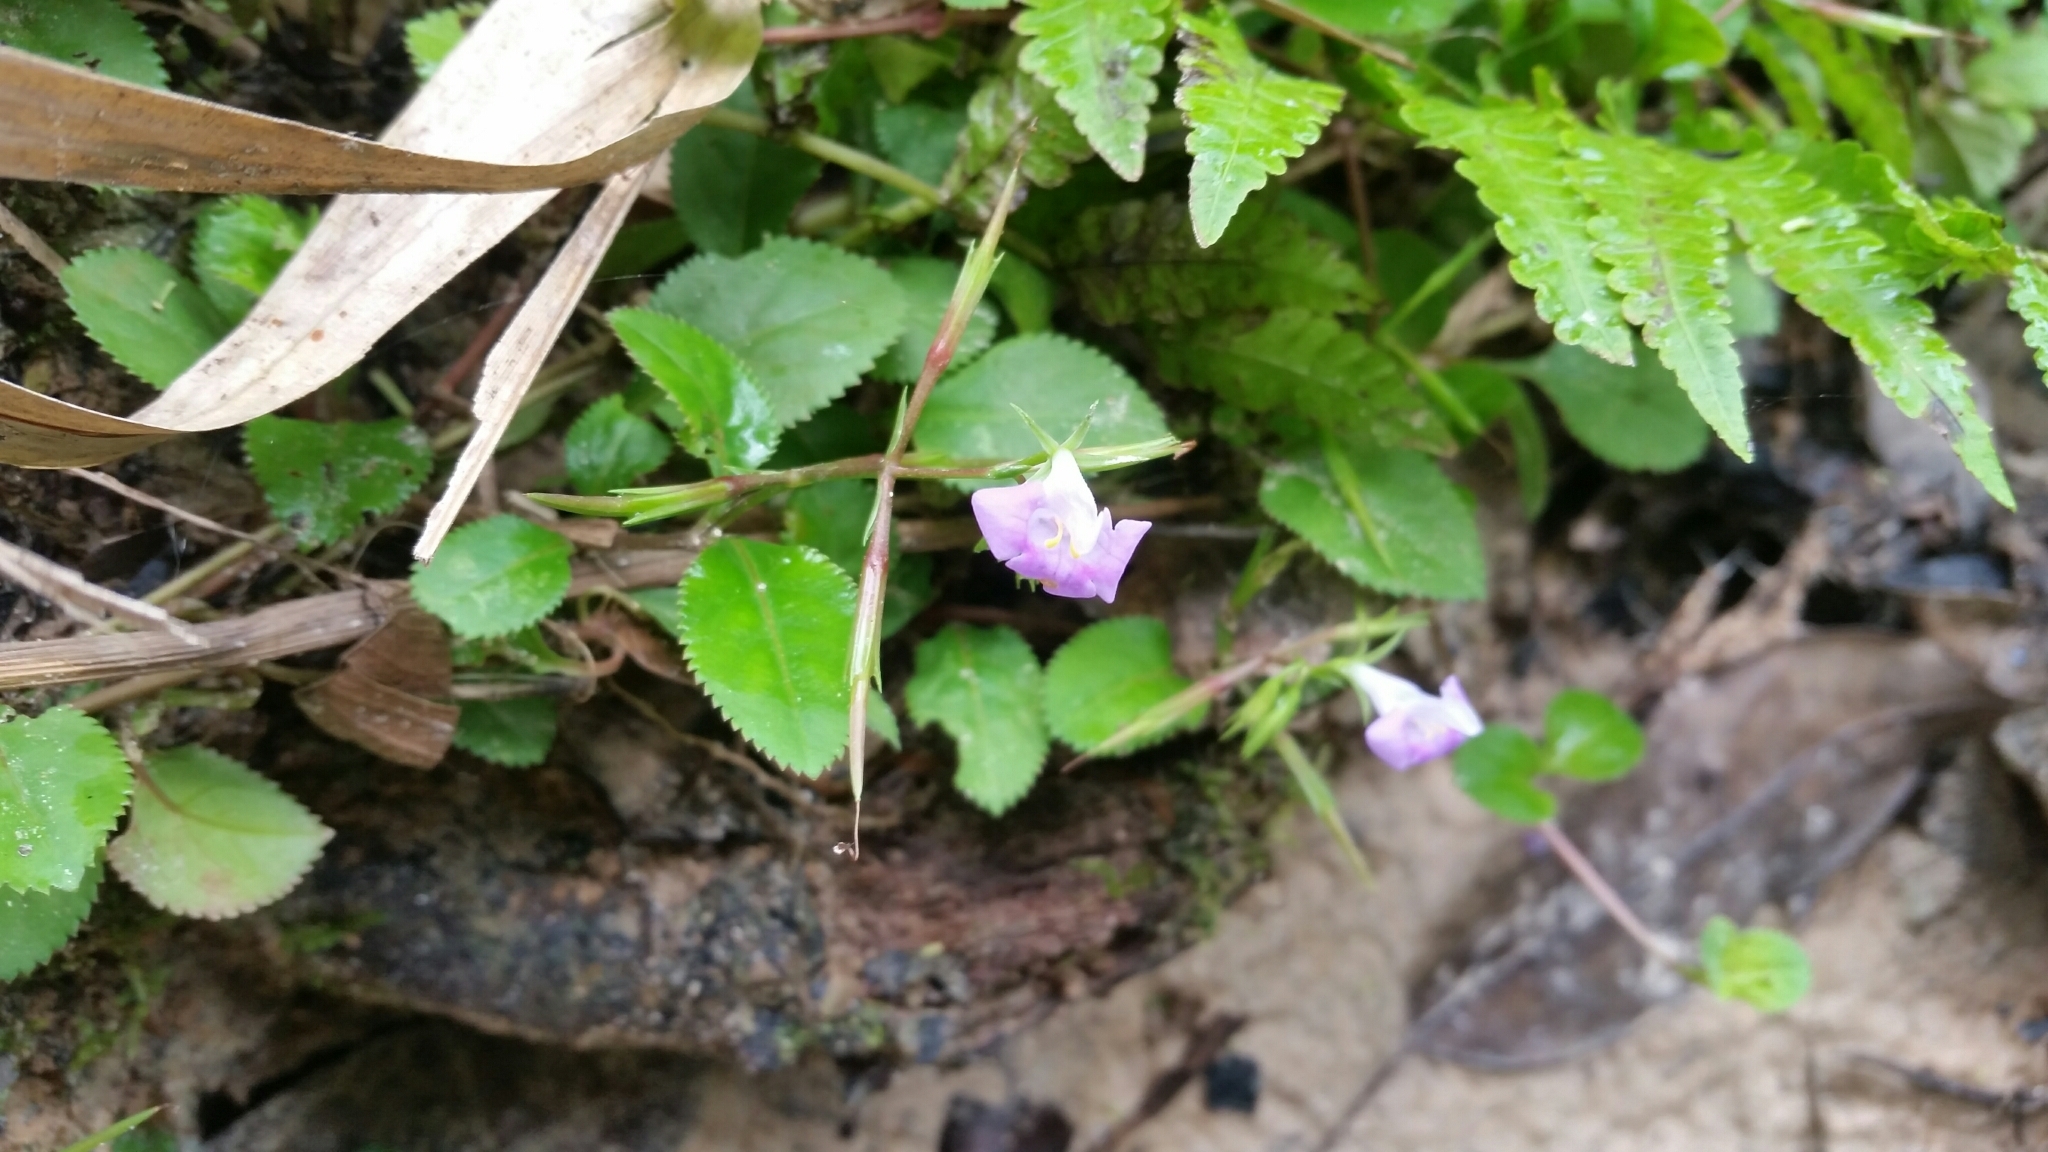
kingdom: Plantae
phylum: Tracheophyta
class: Magnoliopsida
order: Lamiales
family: Linderniaceae
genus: Bonnaya
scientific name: Bonnaya ruelloides
